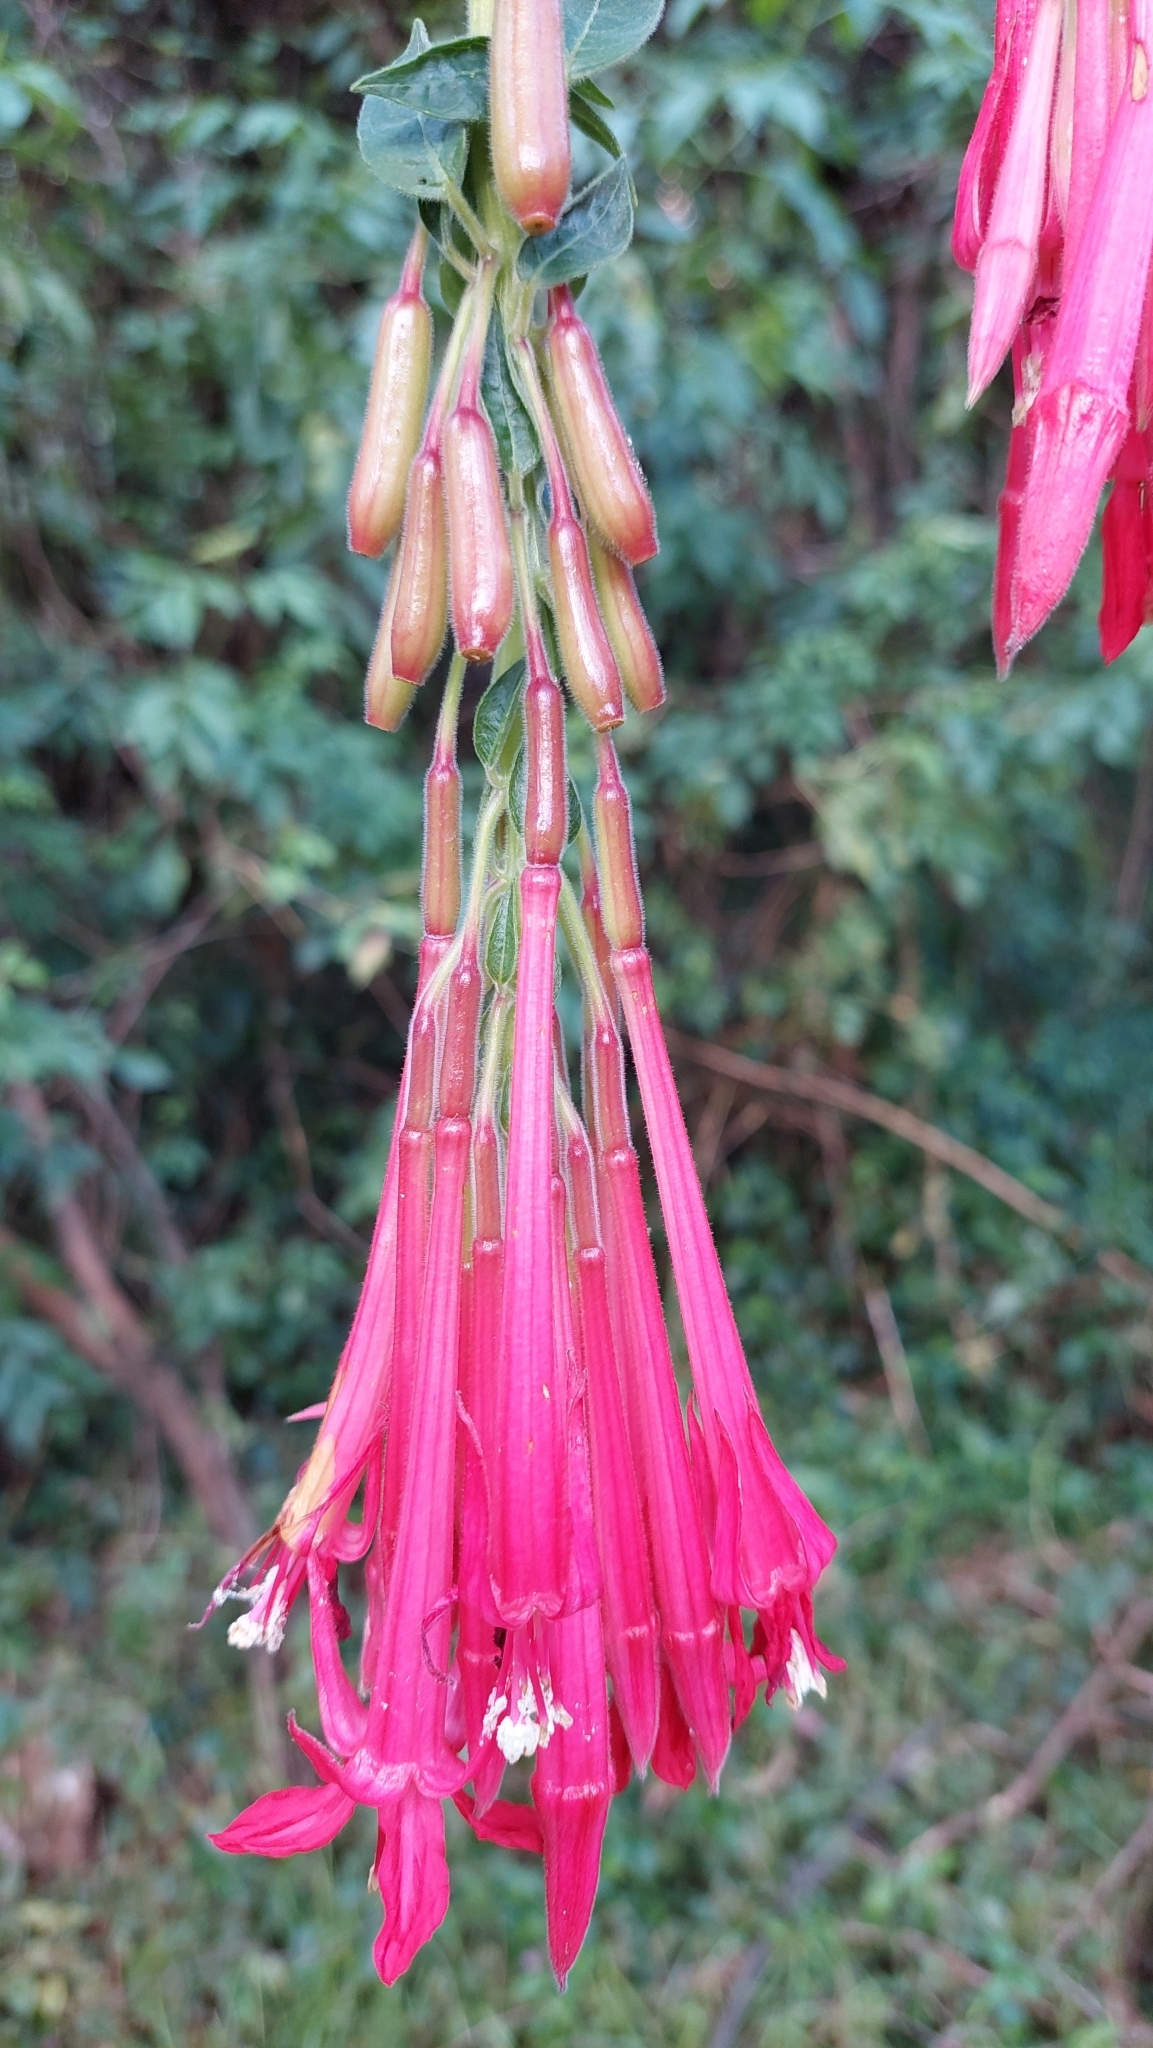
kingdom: Plantae
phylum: Tracheophyta
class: Magnoliopsida
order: Myrtales
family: Onagraceae
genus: Fuchsia
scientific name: Fuchsia boliviana
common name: Bolivian fuchsia
